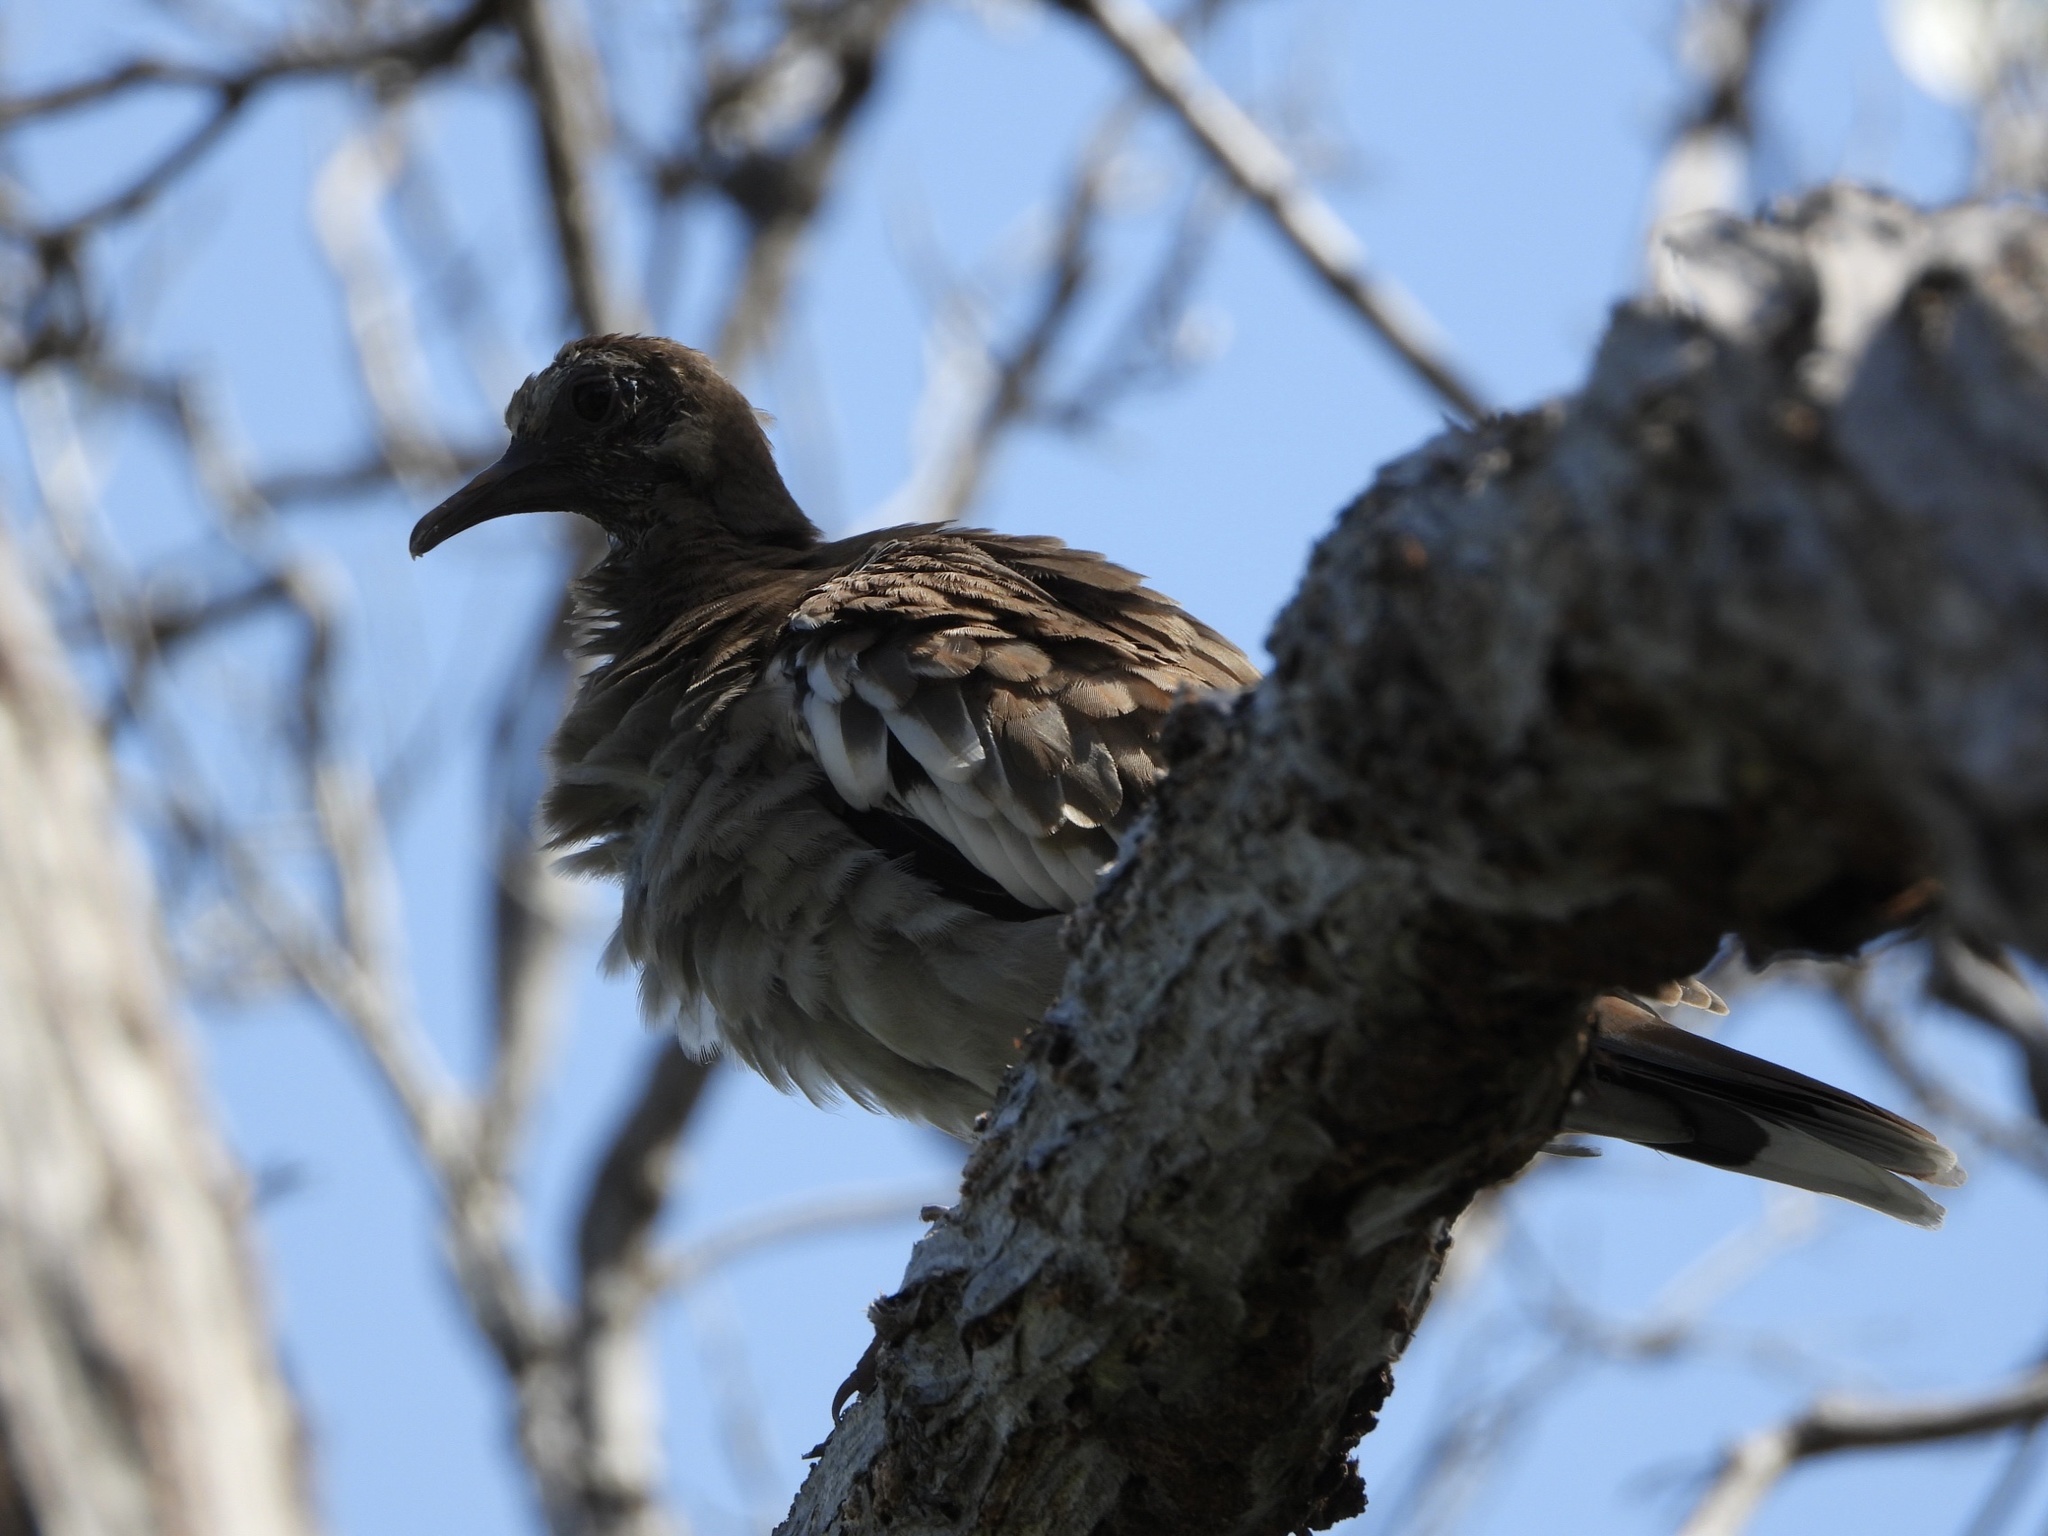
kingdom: Animalia
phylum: Chordata
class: Aves
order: Columbiformes
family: Columbidae
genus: Zenaida
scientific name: Zenaida asiatica
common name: White-winged dove
